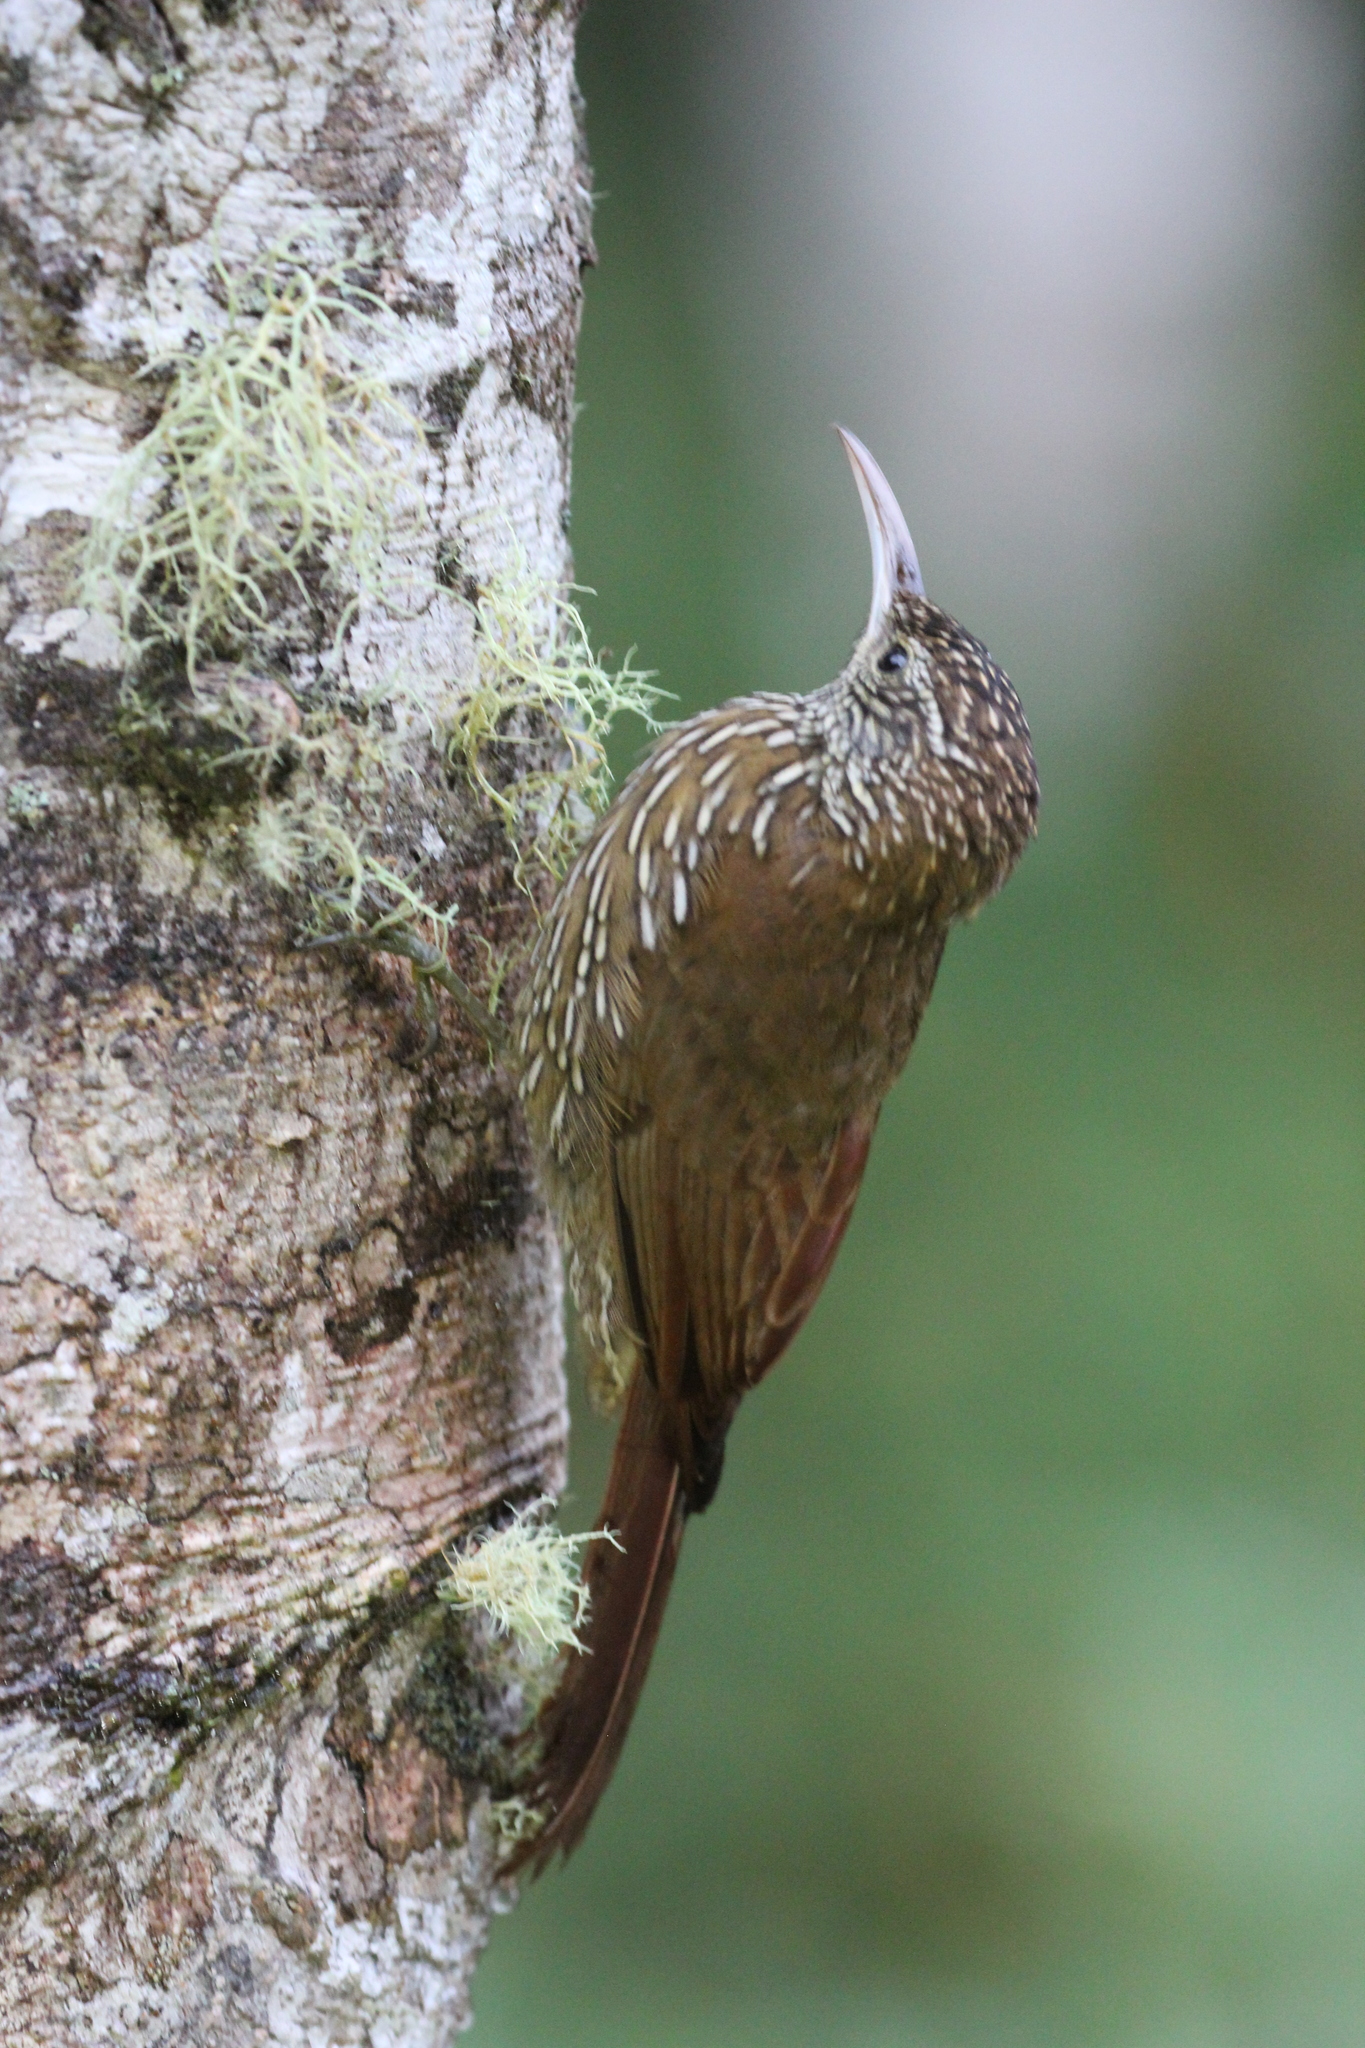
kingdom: Animalia
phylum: Chordata
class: Aves
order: Passeriformes
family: Furnariidae
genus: Lepidocolaptes
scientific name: Lepidocolaptes lacrymiger
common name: Montane woodcreeper
